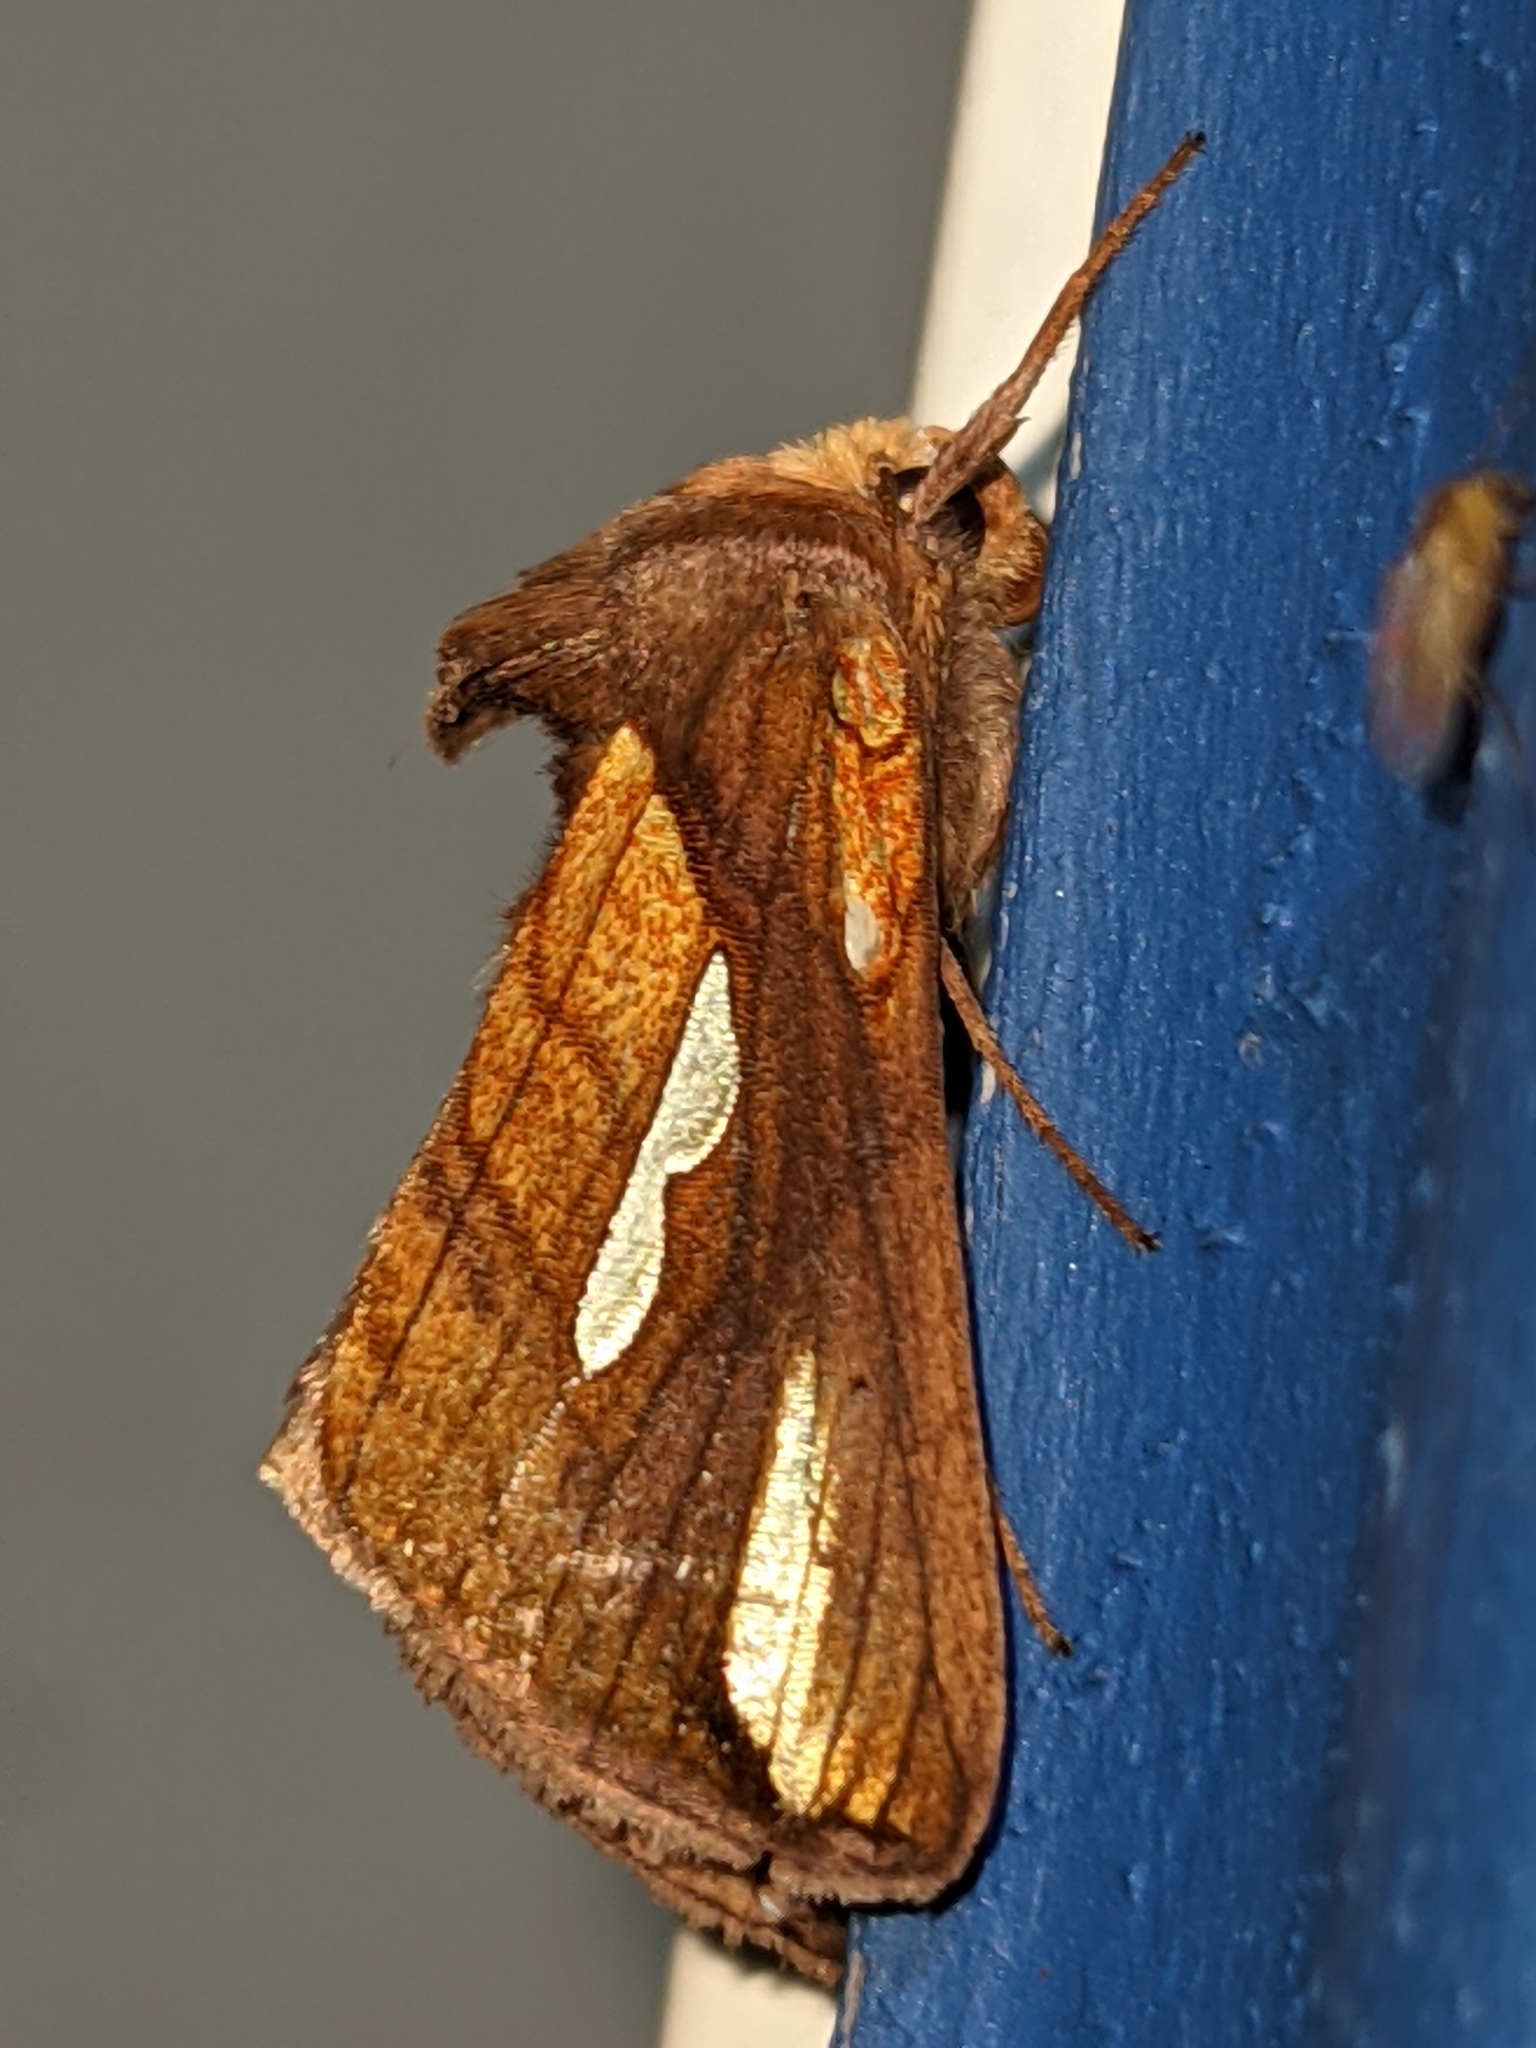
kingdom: Animalia
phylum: Arthropoda
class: Insecta
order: Lepidoptera
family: Noctuidae
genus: Plusia
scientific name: Plusia contexta
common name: Connected looper moth
